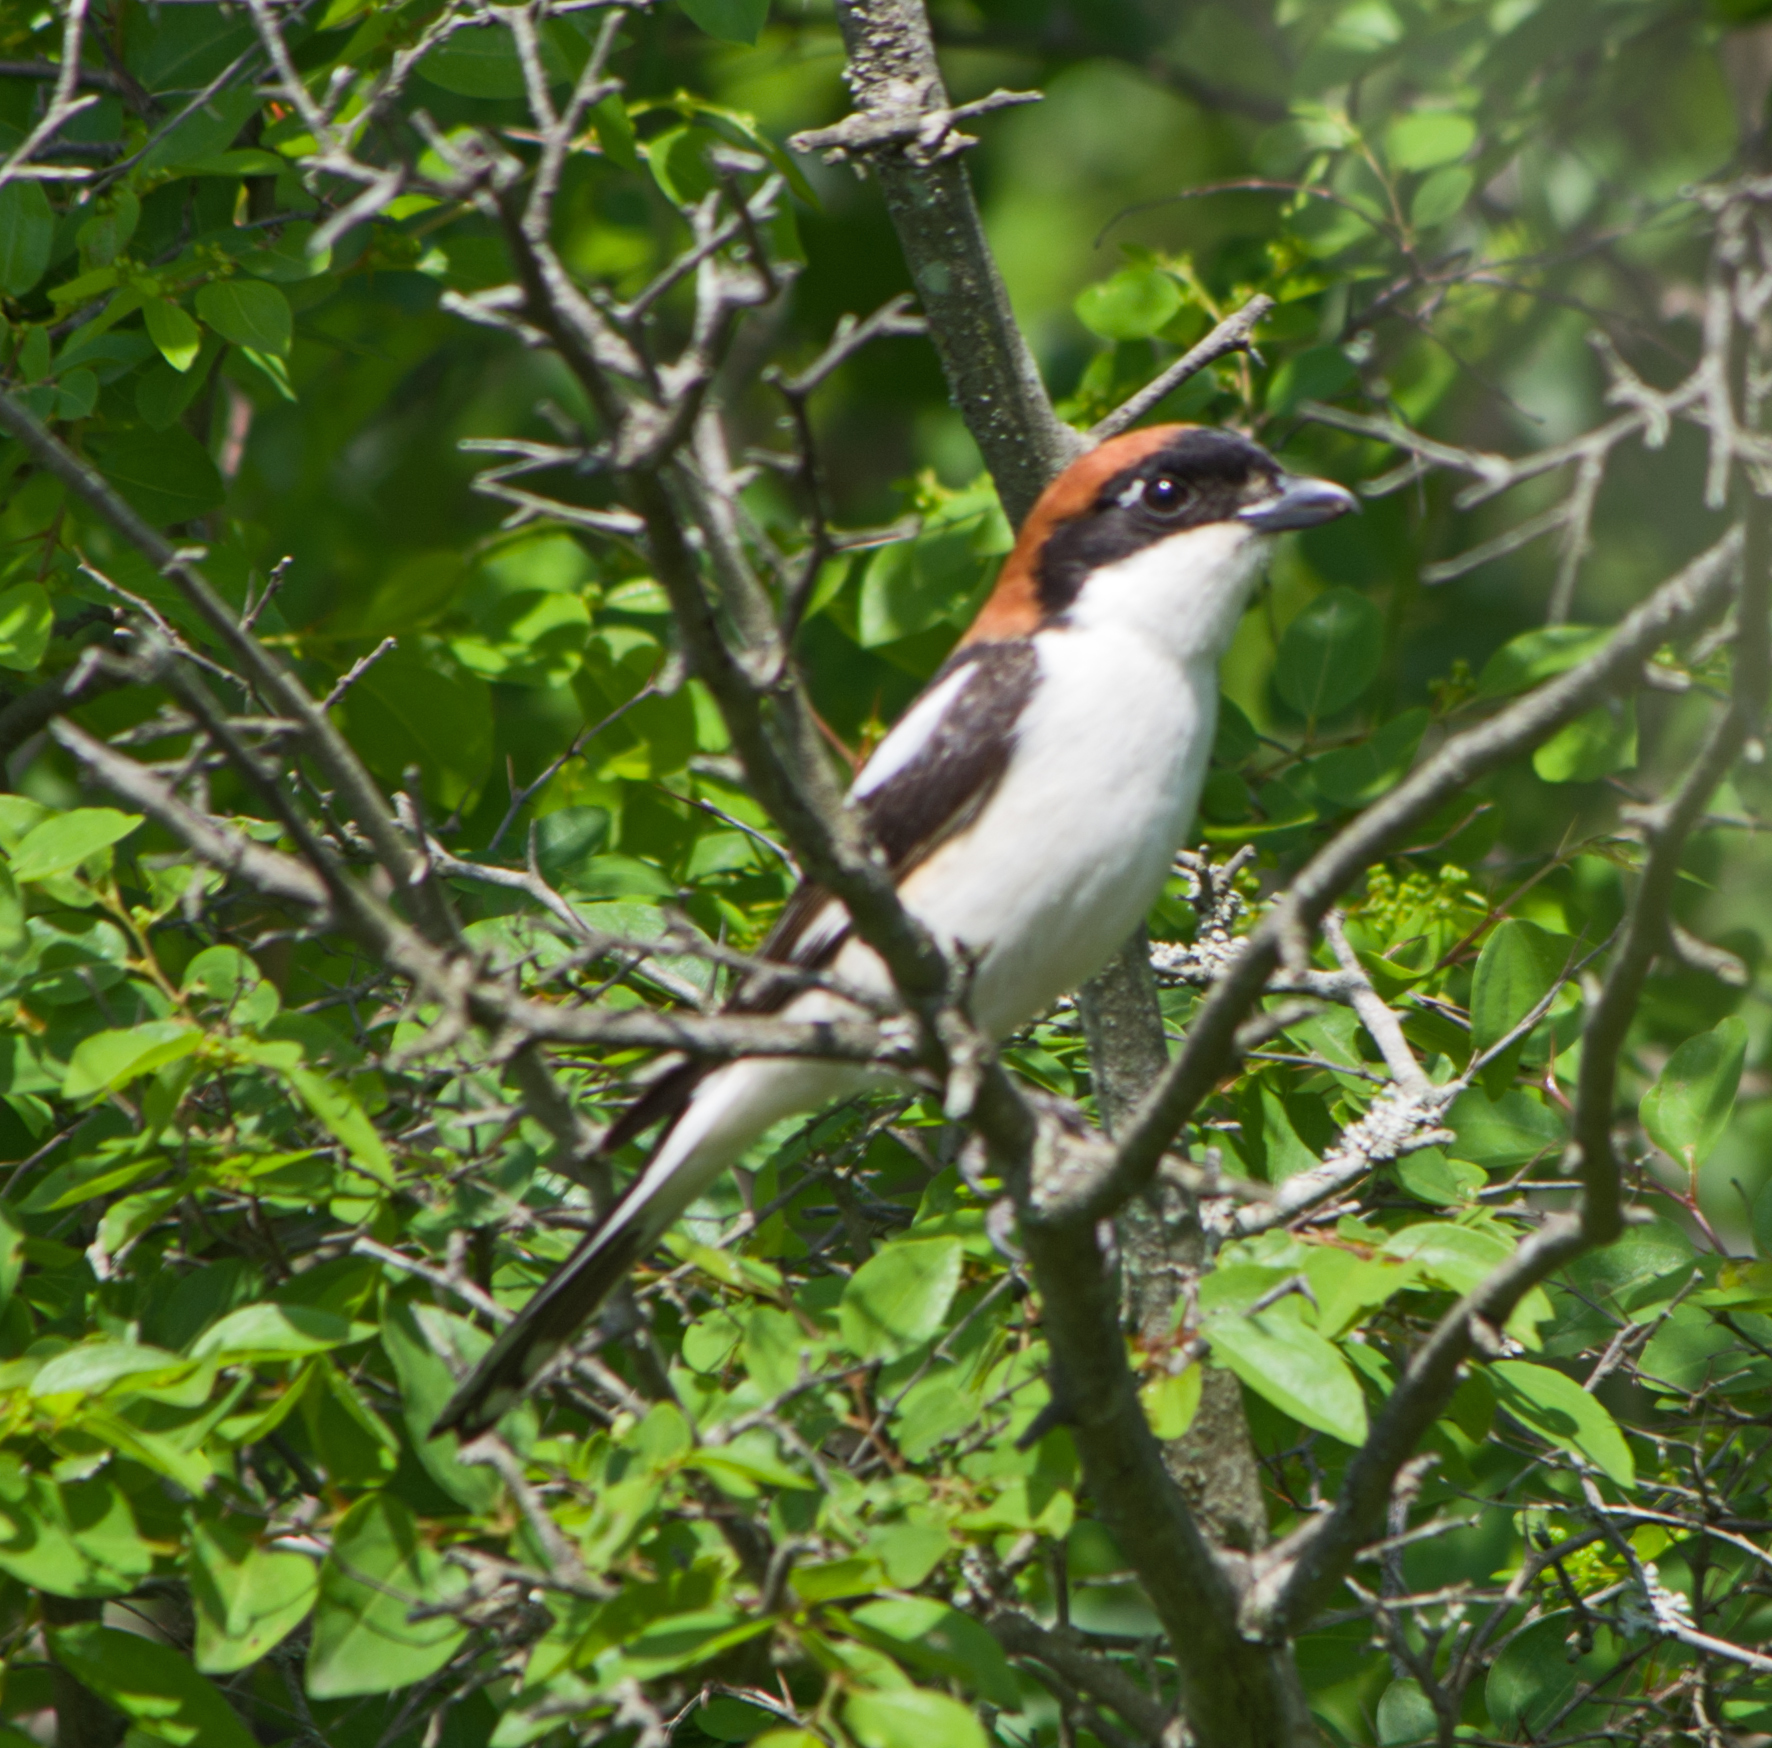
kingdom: Animalia
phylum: Chordata
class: Aves
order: Passeriformes
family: Laniidae
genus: Lanius
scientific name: Lanius senator
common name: Woodchat shrike
